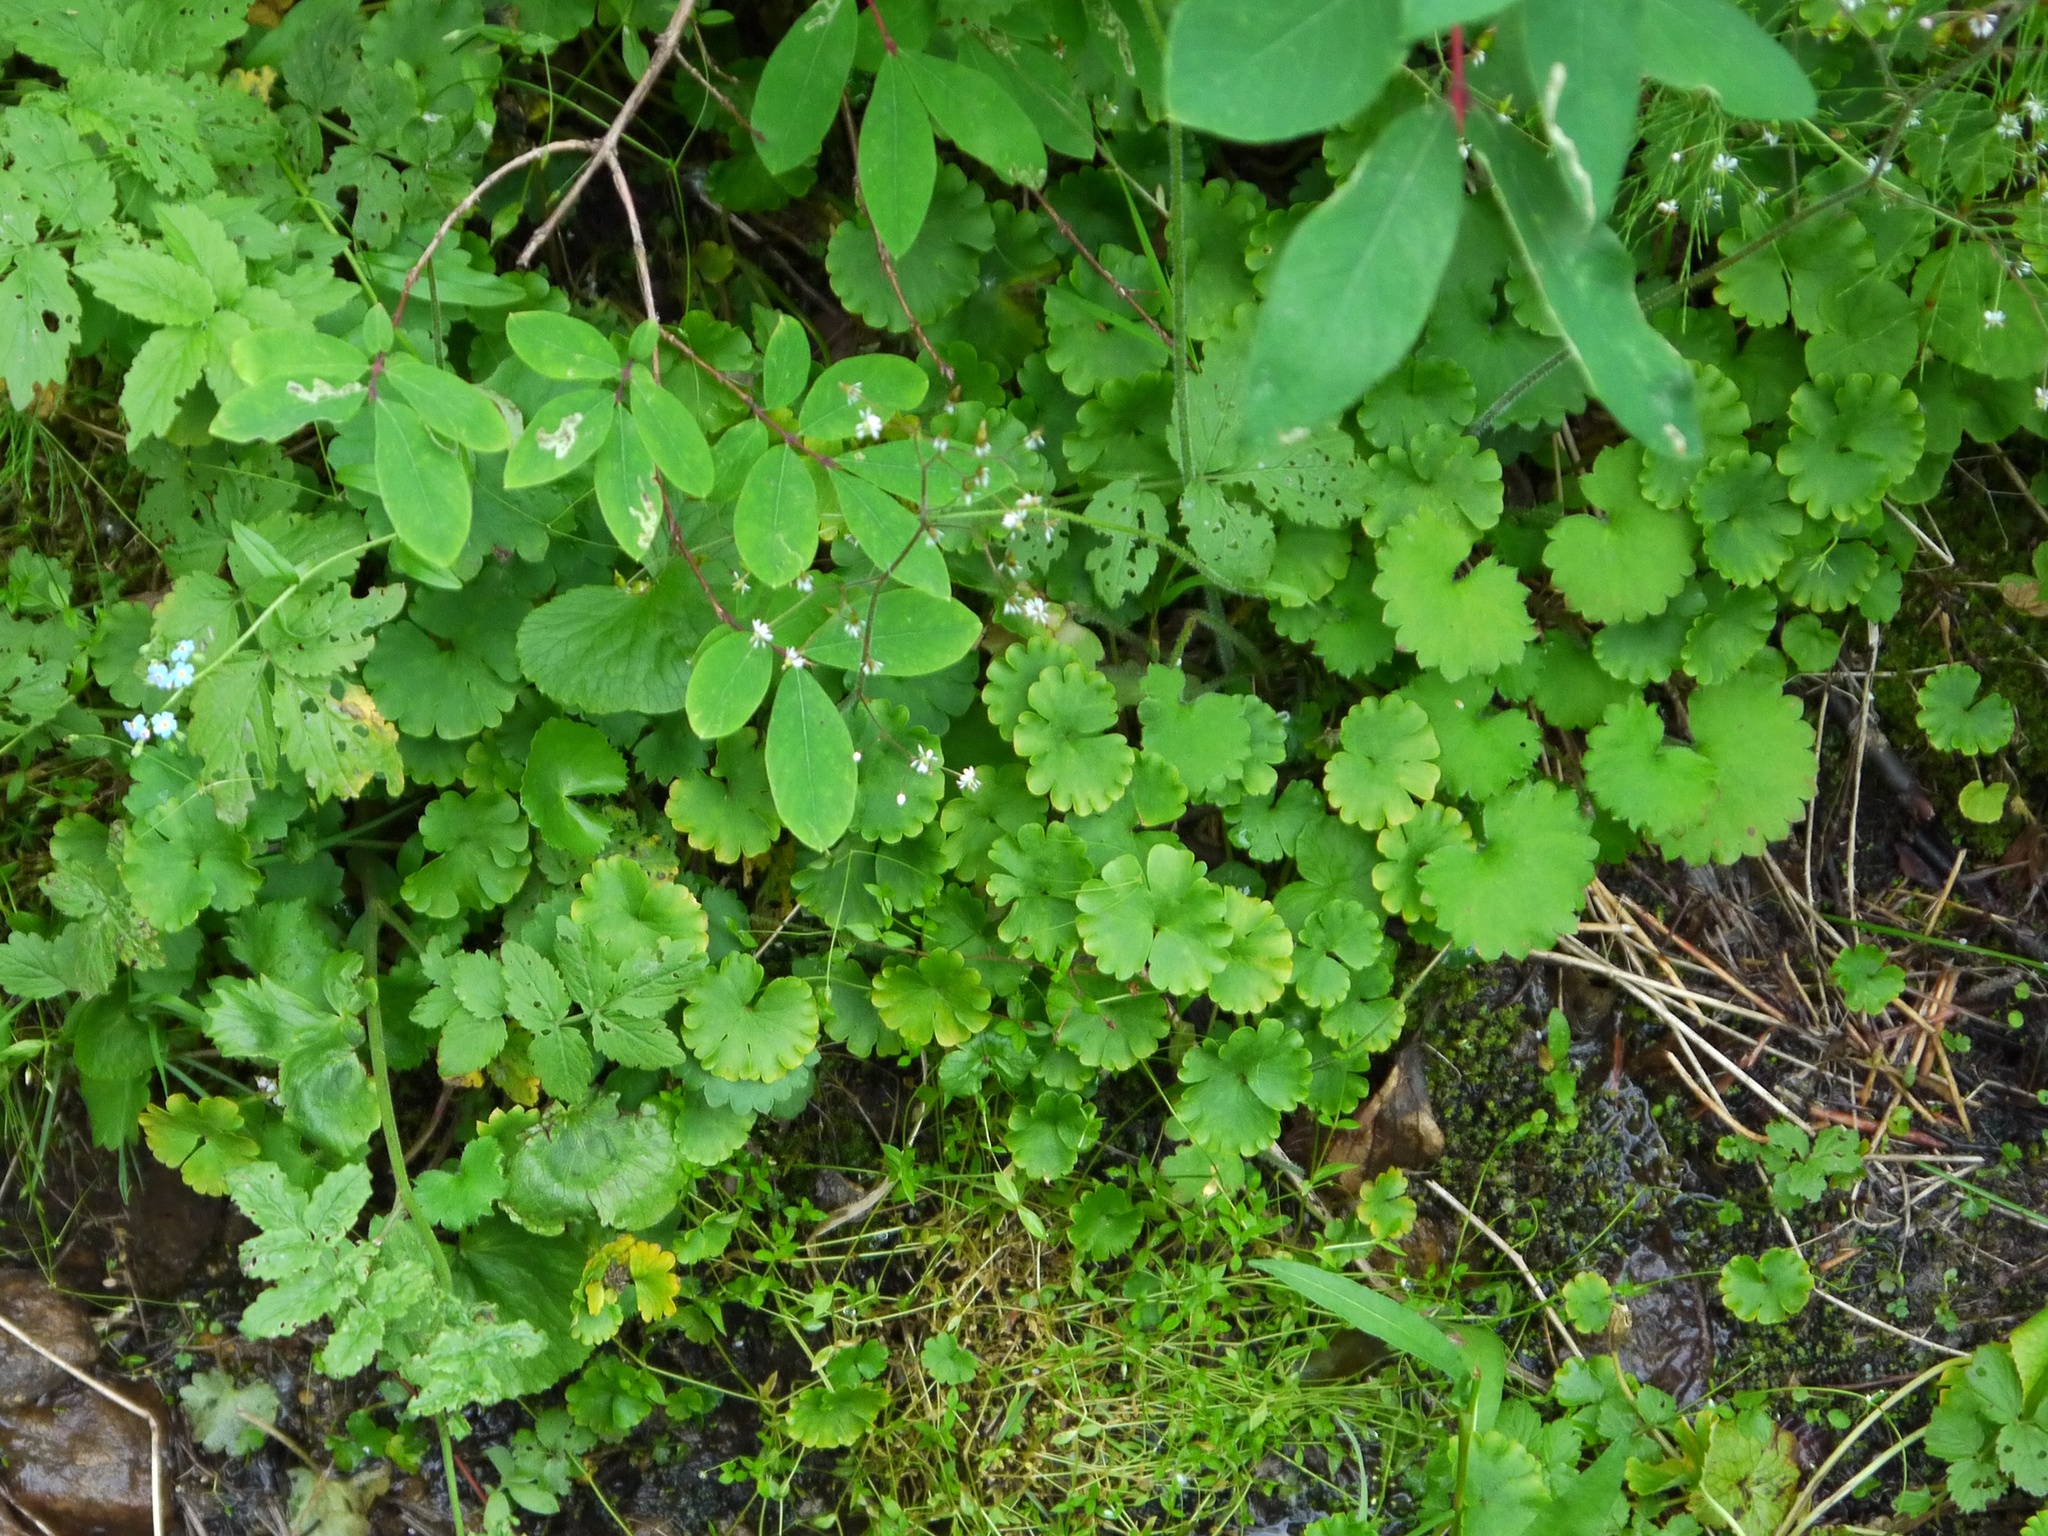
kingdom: Plantae
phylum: Tracheophyta
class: Magnoliopsida
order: Saxifragales
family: Saxifragaceae
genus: Chrysosplenium
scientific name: Chrysosplenium sibiricum
